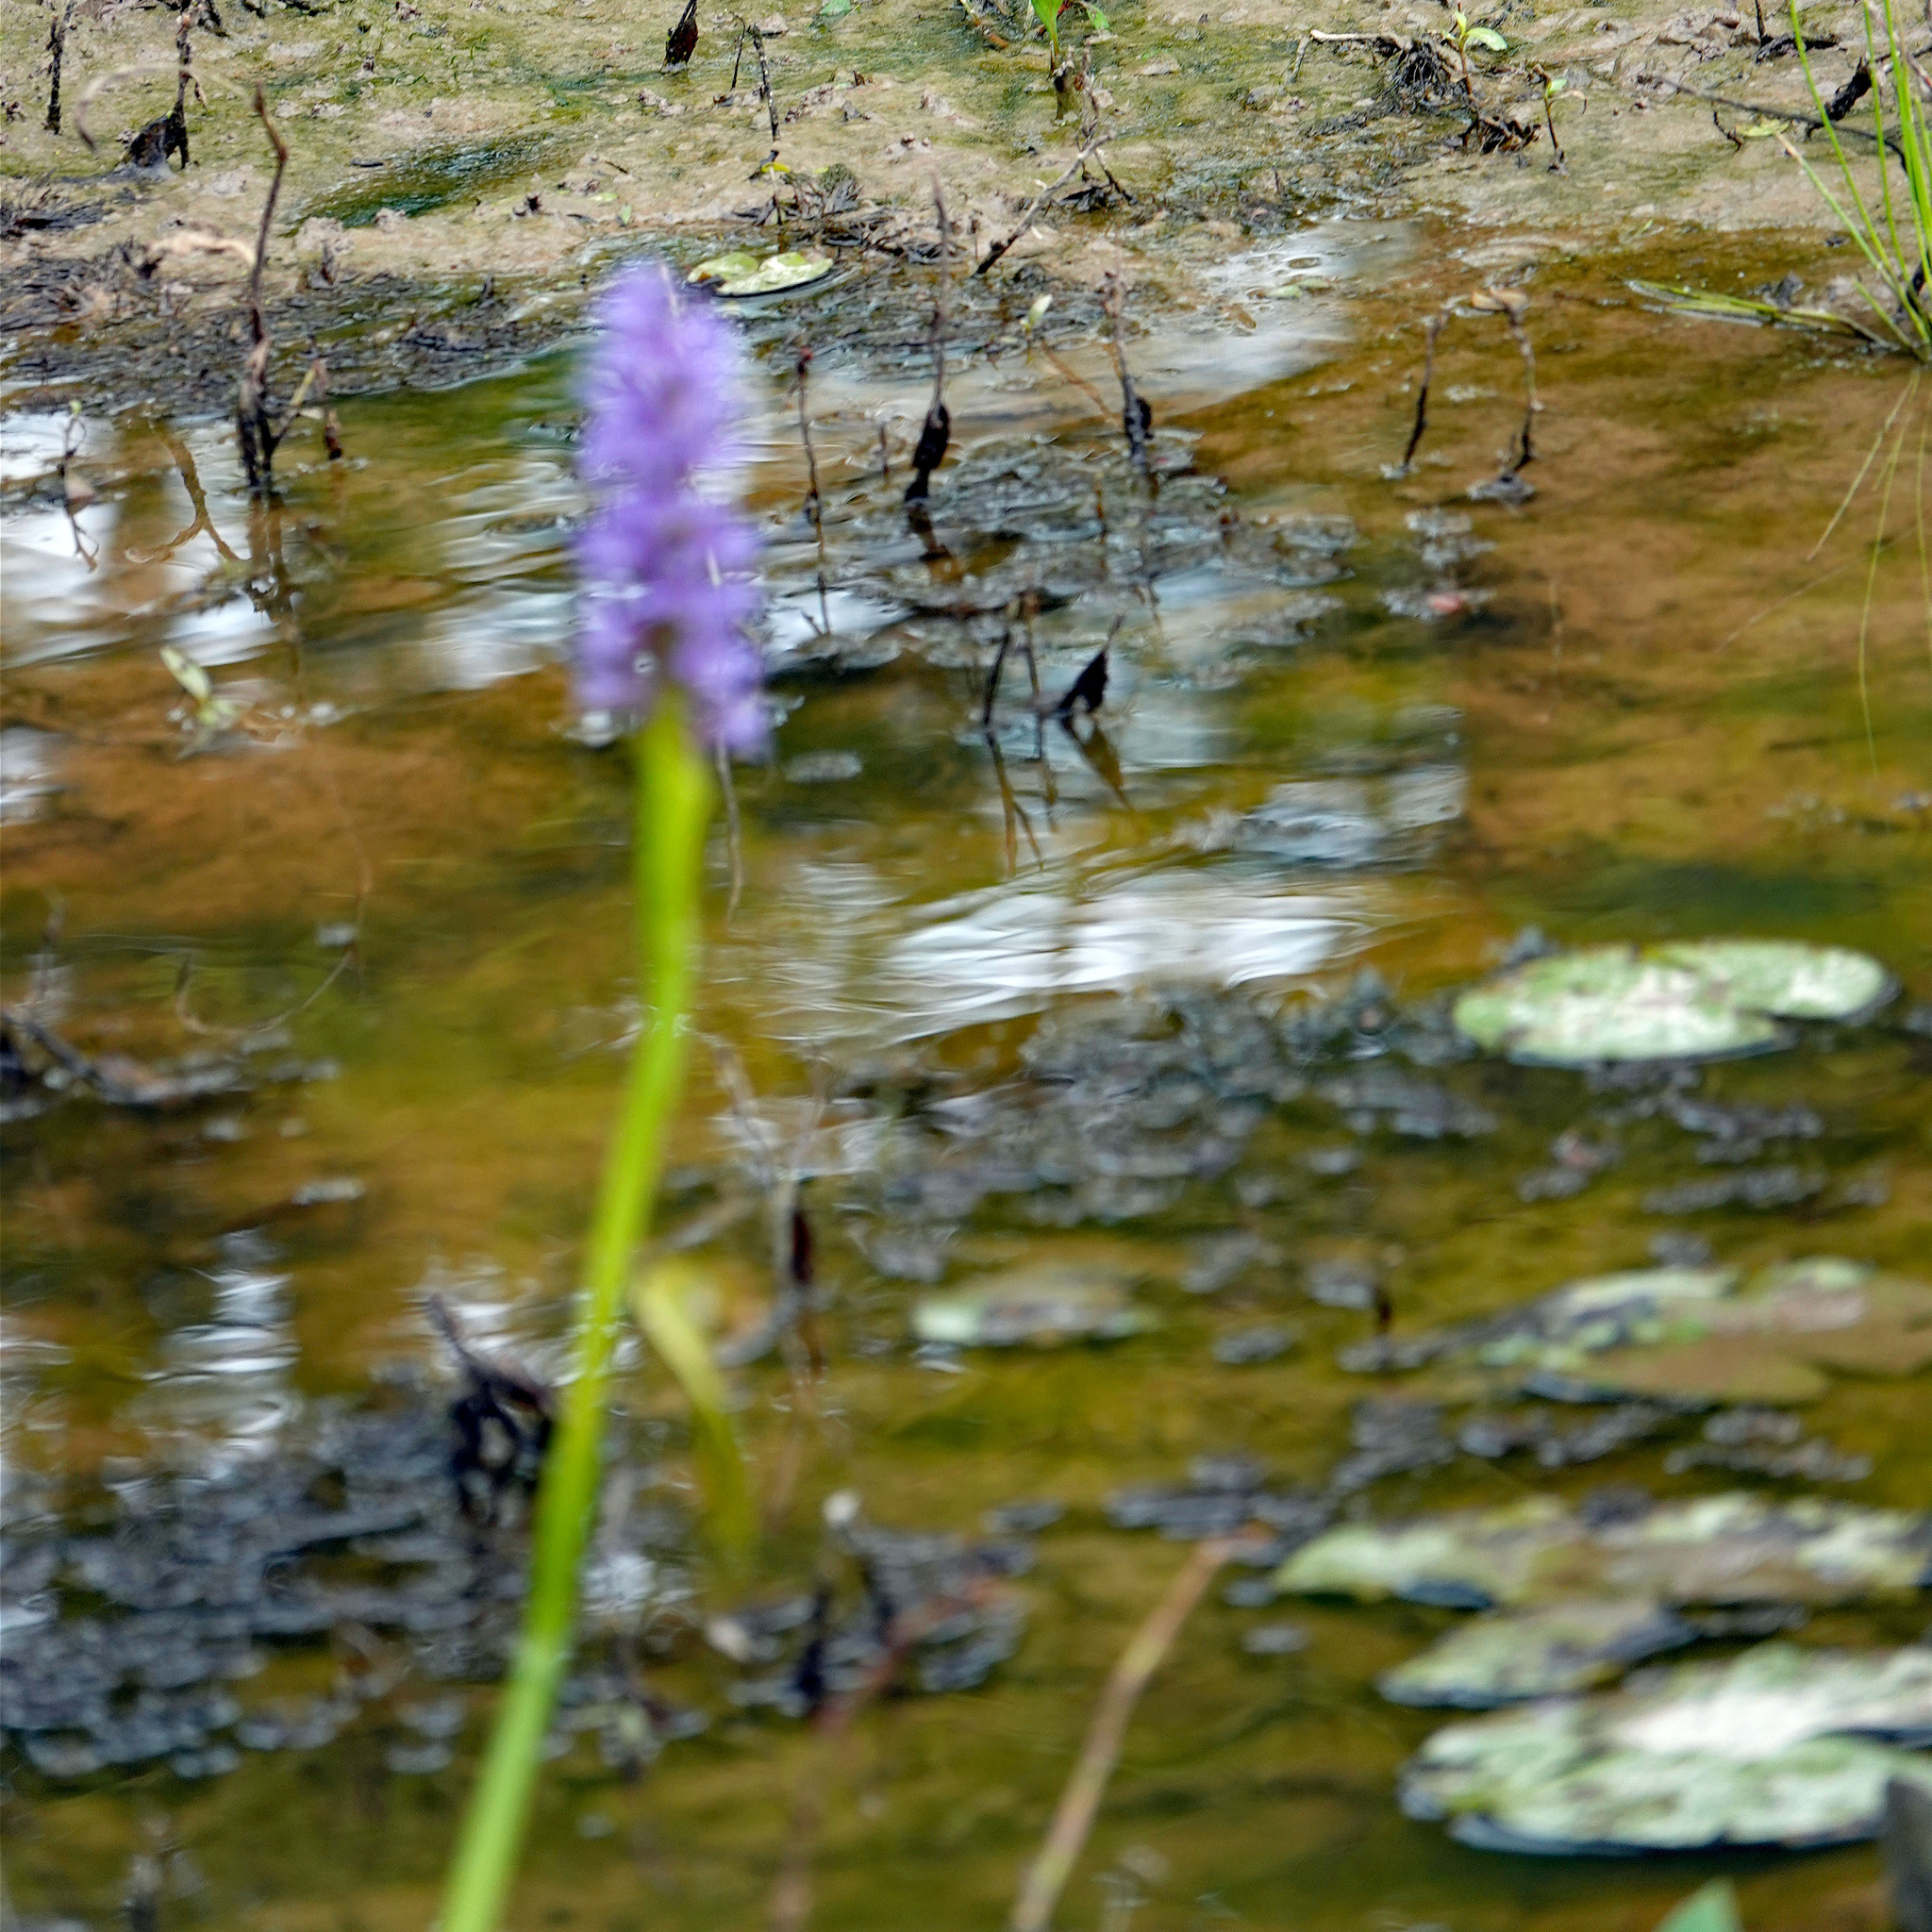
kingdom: Plantae
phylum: Tracheophyta
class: Liliopsida
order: Commelinales
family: Pontederiaceae
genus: Pontederia
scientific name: Pontederia cordata
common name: Pickerelweed
